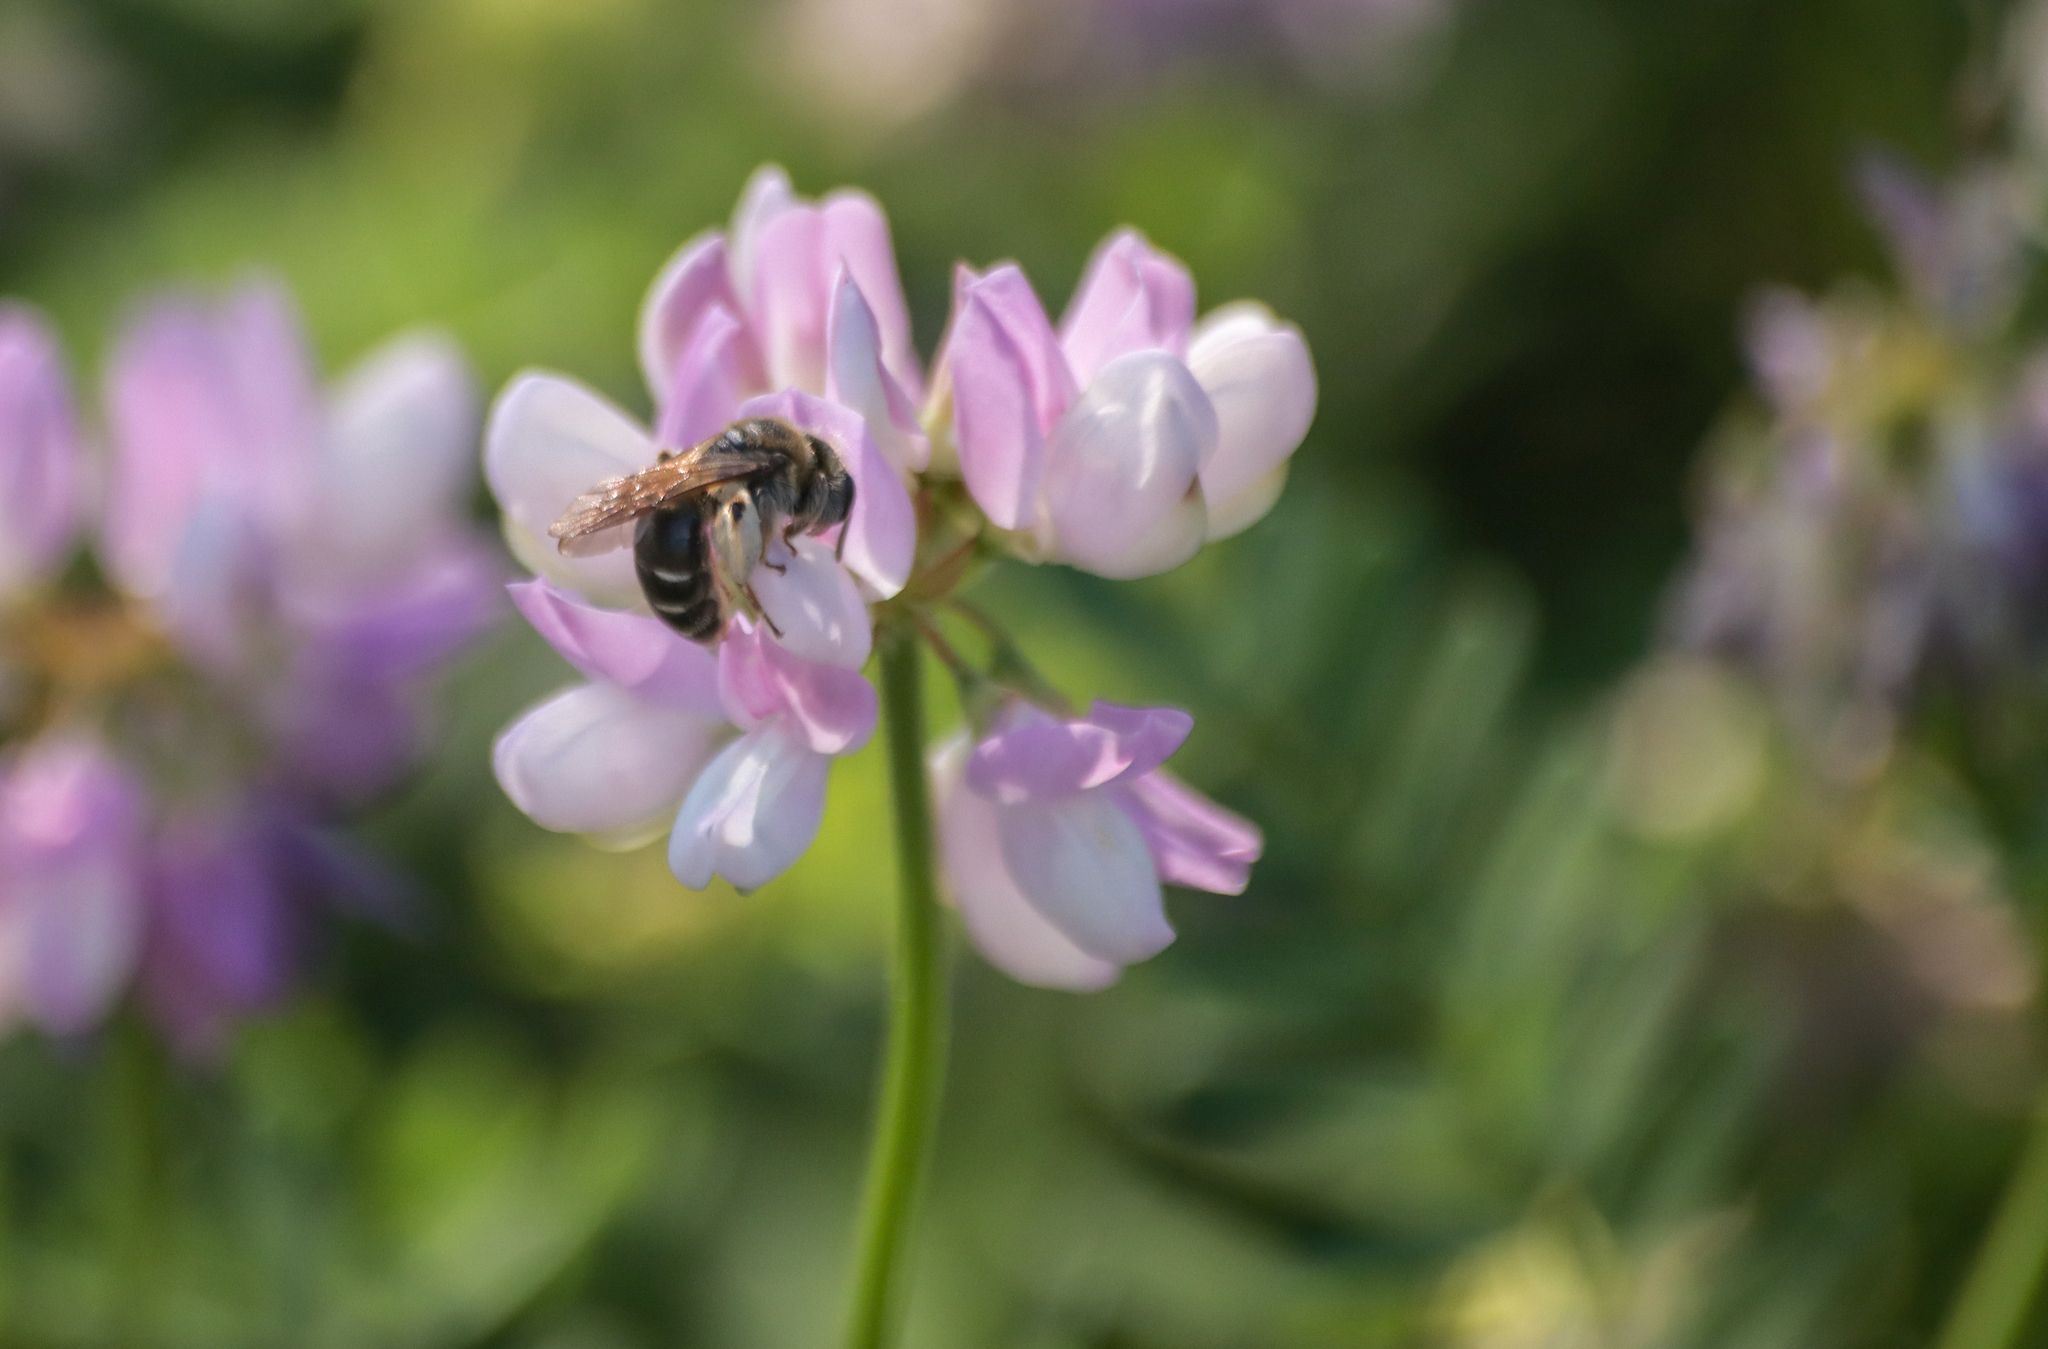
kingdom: Animalia
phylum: Arthropoda
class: Insecta
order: Hymenoptera
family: Andrenidae
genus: Andrena
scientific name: Andrena wilkella
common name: Wilke's mining bee
